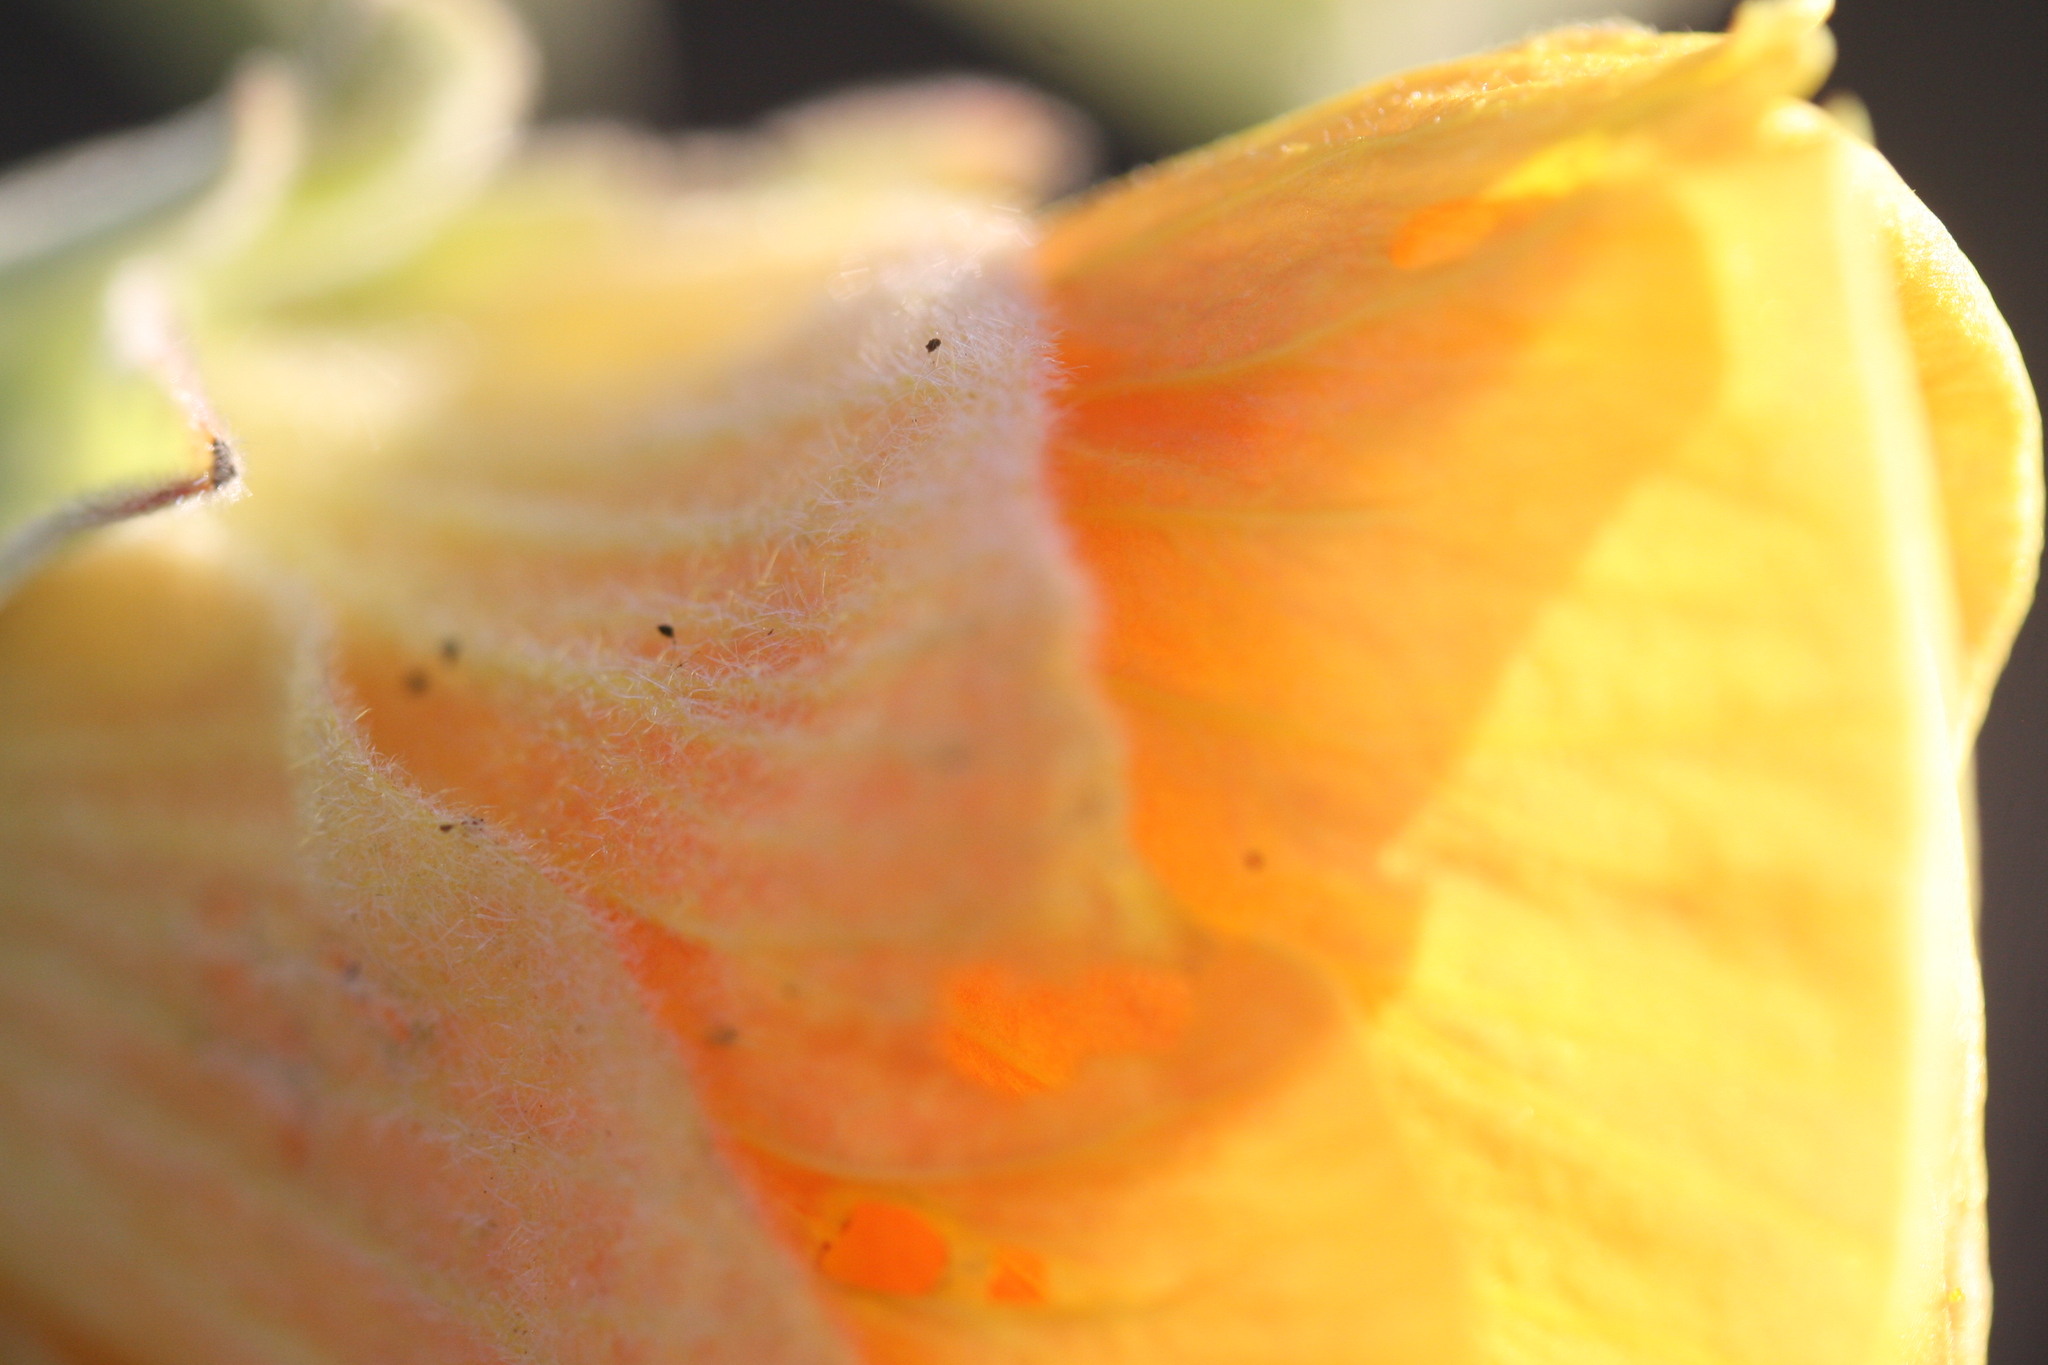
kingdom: Plantae
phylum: Tracheophyta
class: Magnoliopsida
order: Malvales
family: Malvaceae
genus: Hibiscus
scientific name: Hibiscus austrinus
